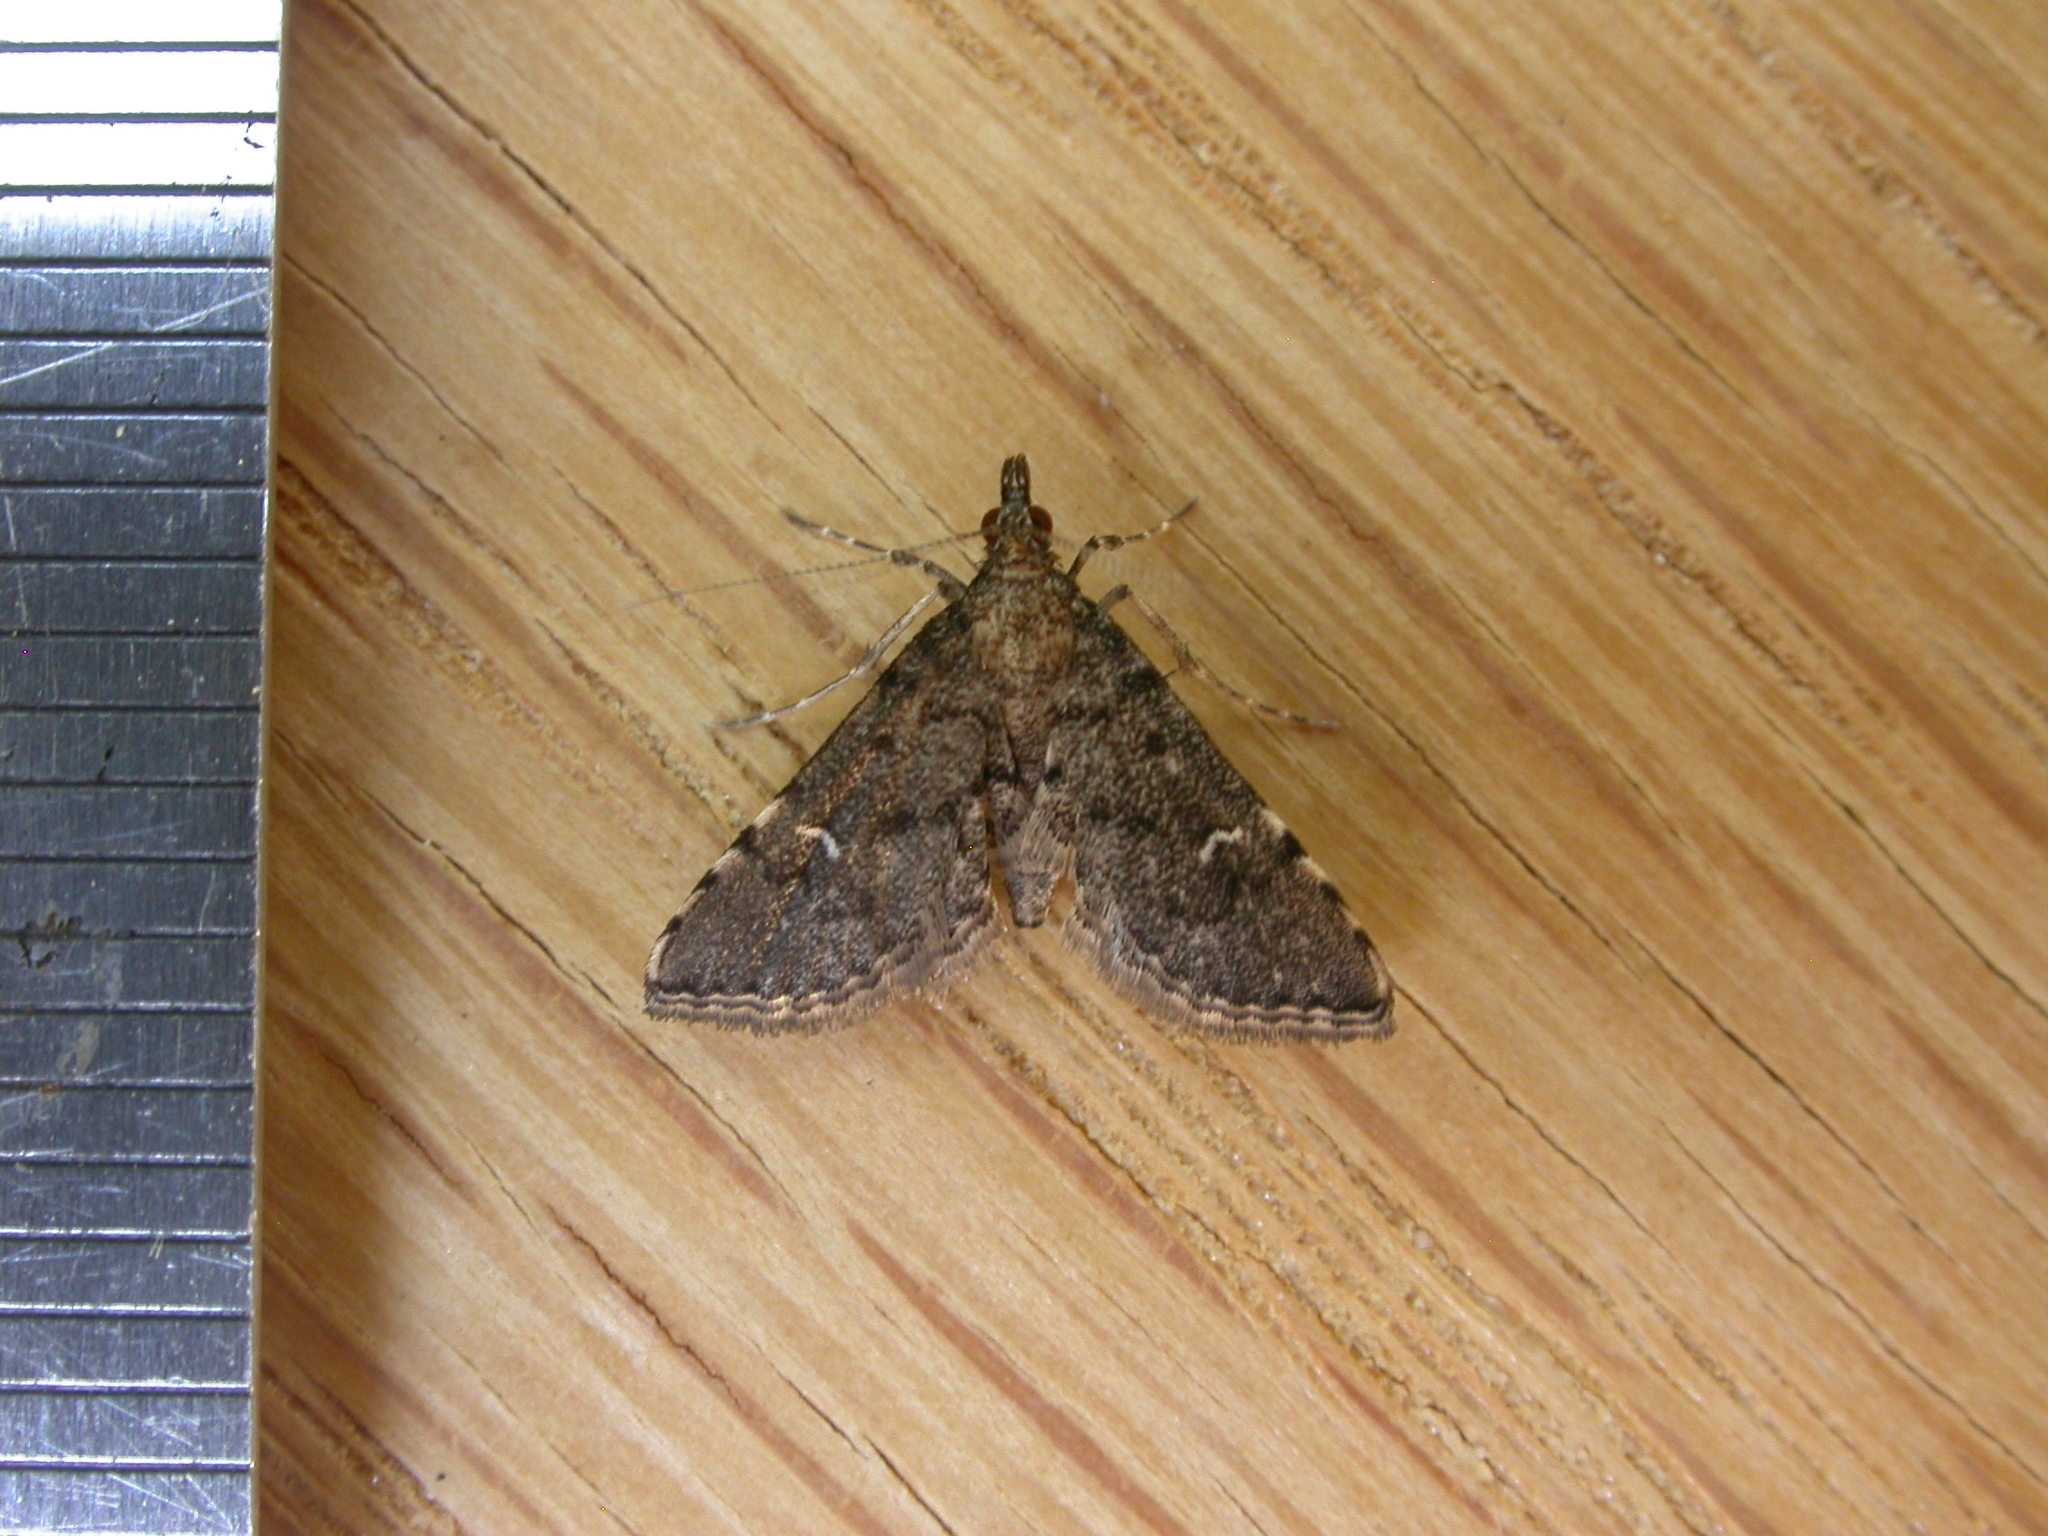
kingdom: Animalia
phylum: Arthropoda
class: Insecta
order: Lepidoptera
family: Crambidae
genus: Metasia
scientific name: Metasia capnochroa
